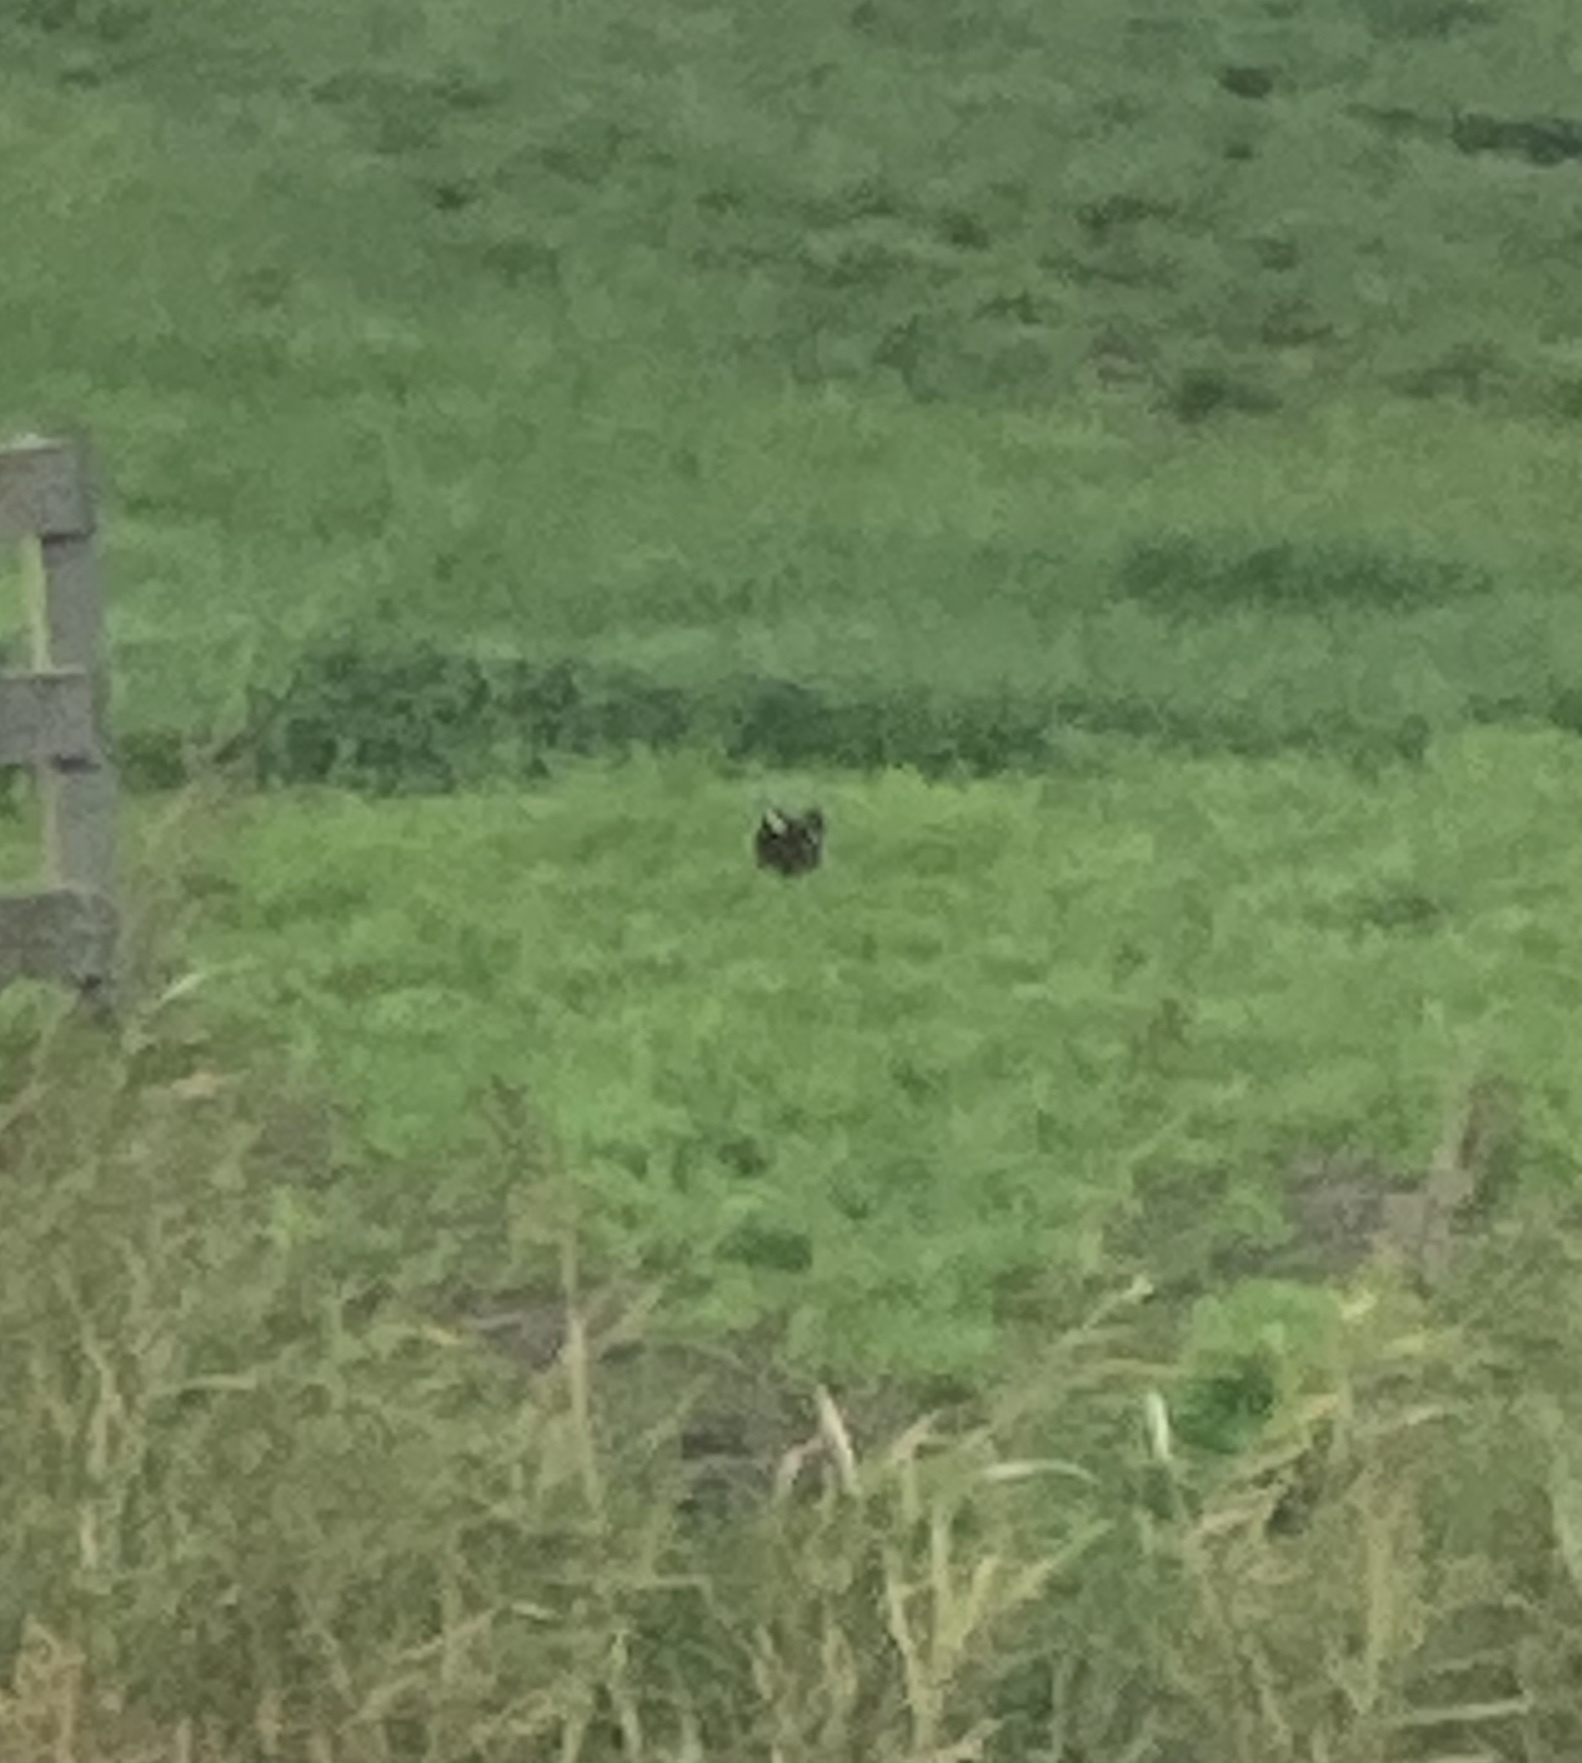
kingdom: Animalia
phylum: Chordata
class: Aves
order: Gruiformes
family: Rallidae
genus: Gallinula
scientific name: Gallinula chloropus
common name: Common moorhen
